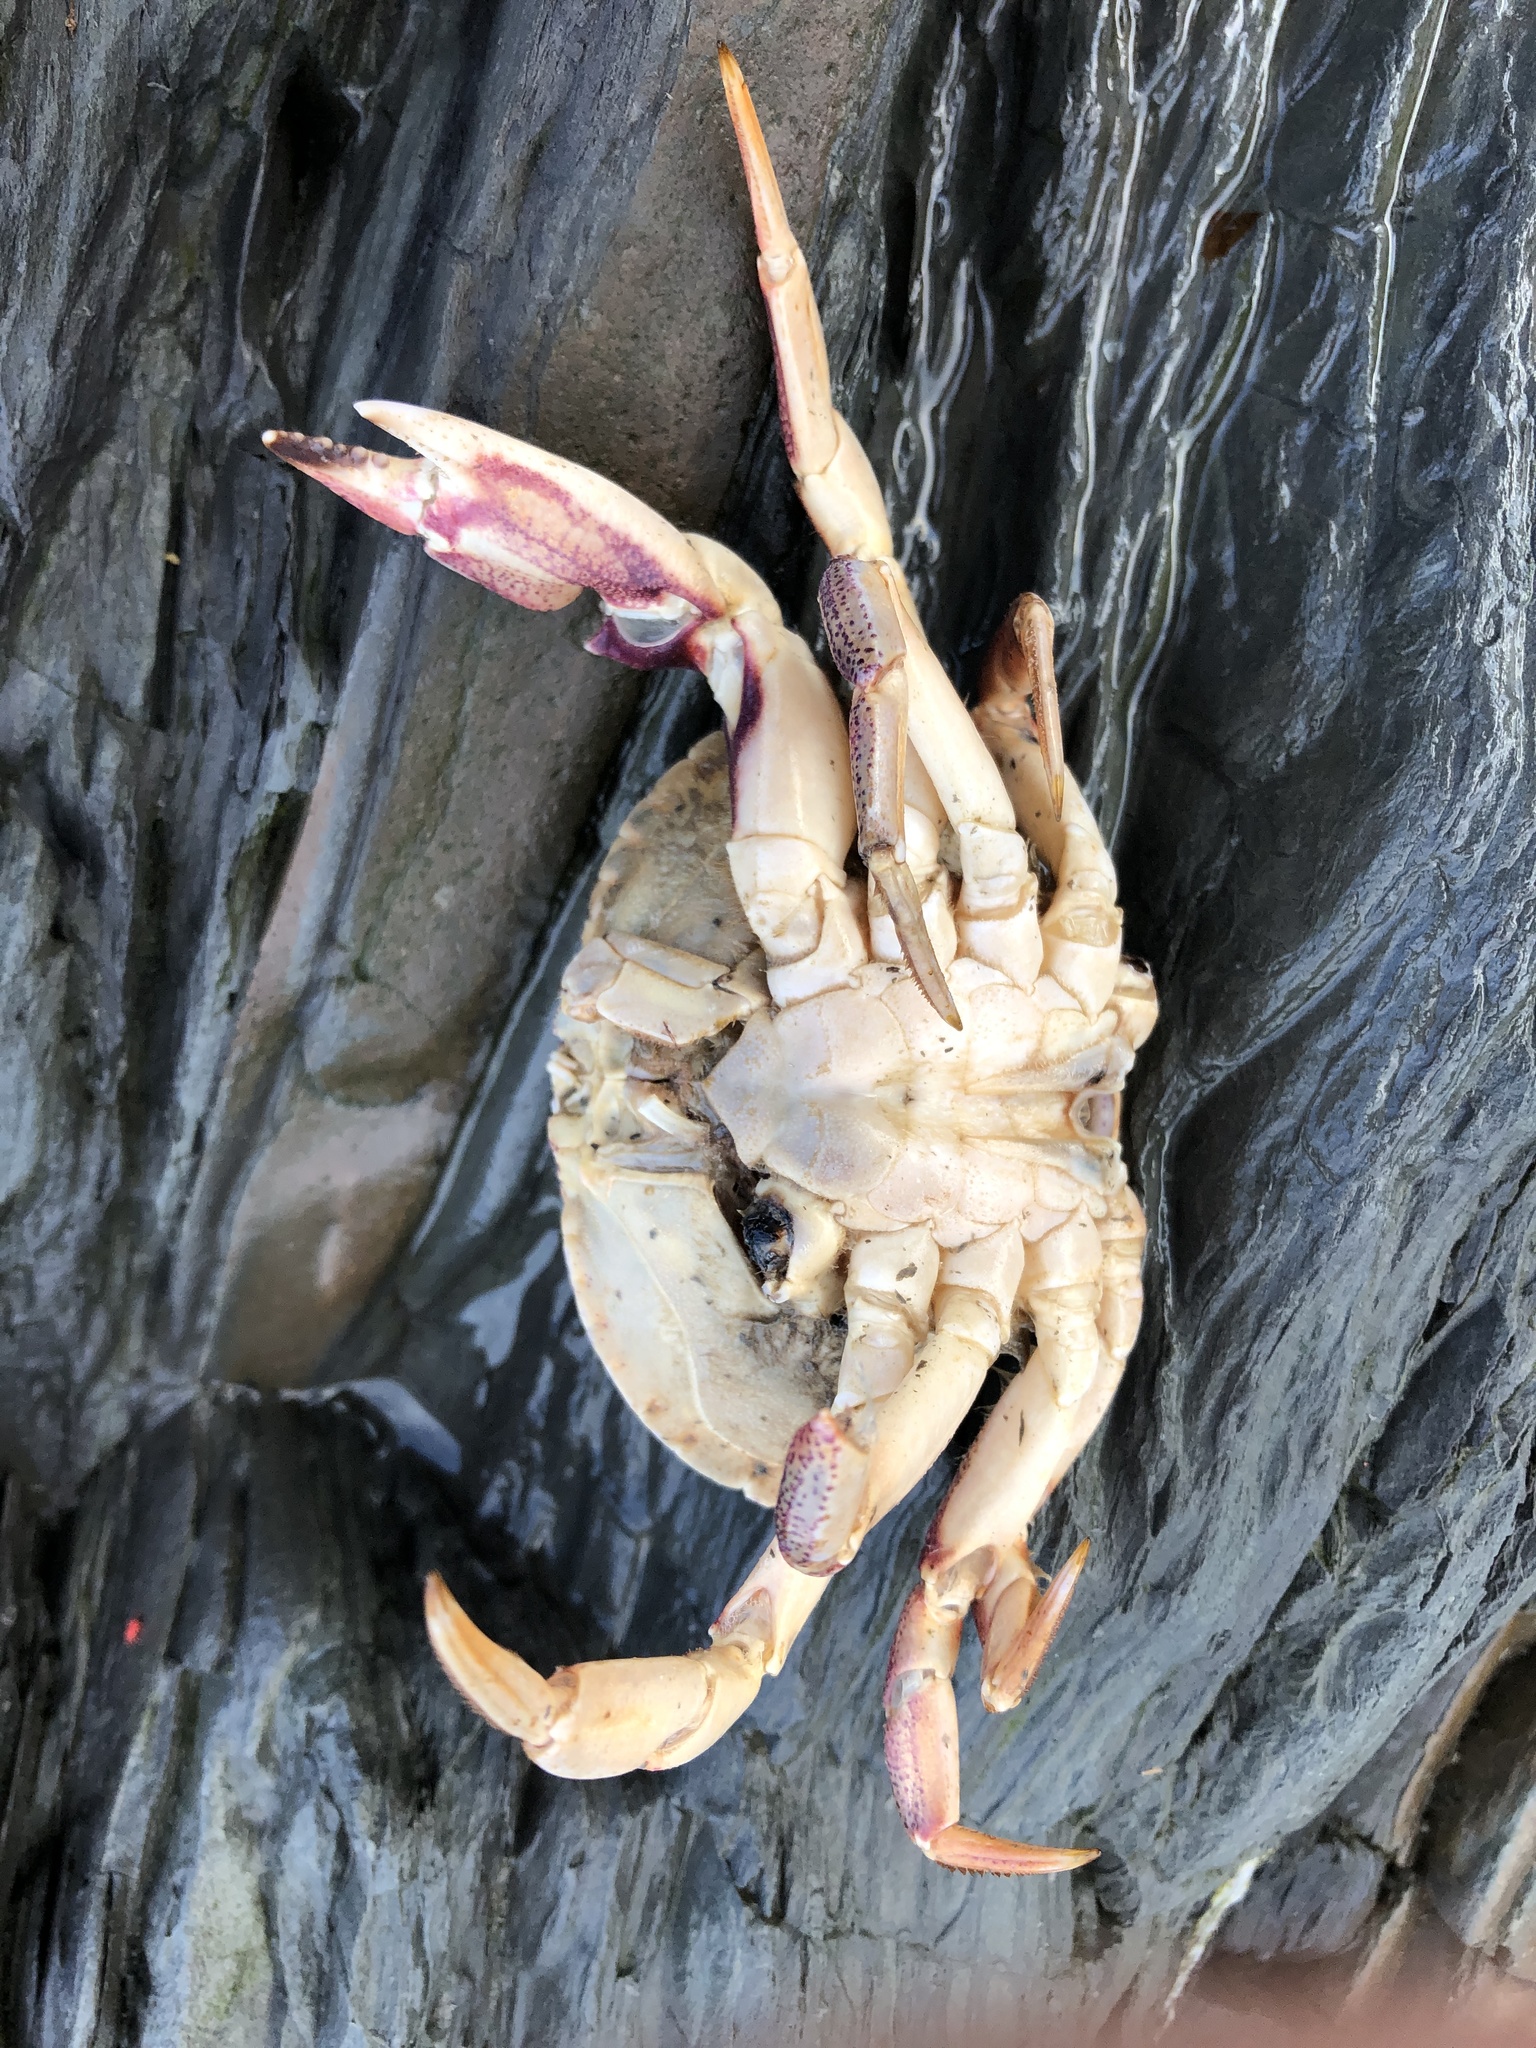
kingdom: Animalia
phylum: Arthropoda
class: Malacostraca
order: Decapoda
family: Cancridae
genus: Cancer
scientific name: Cancer irroratus
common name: Atlantic rock crab
